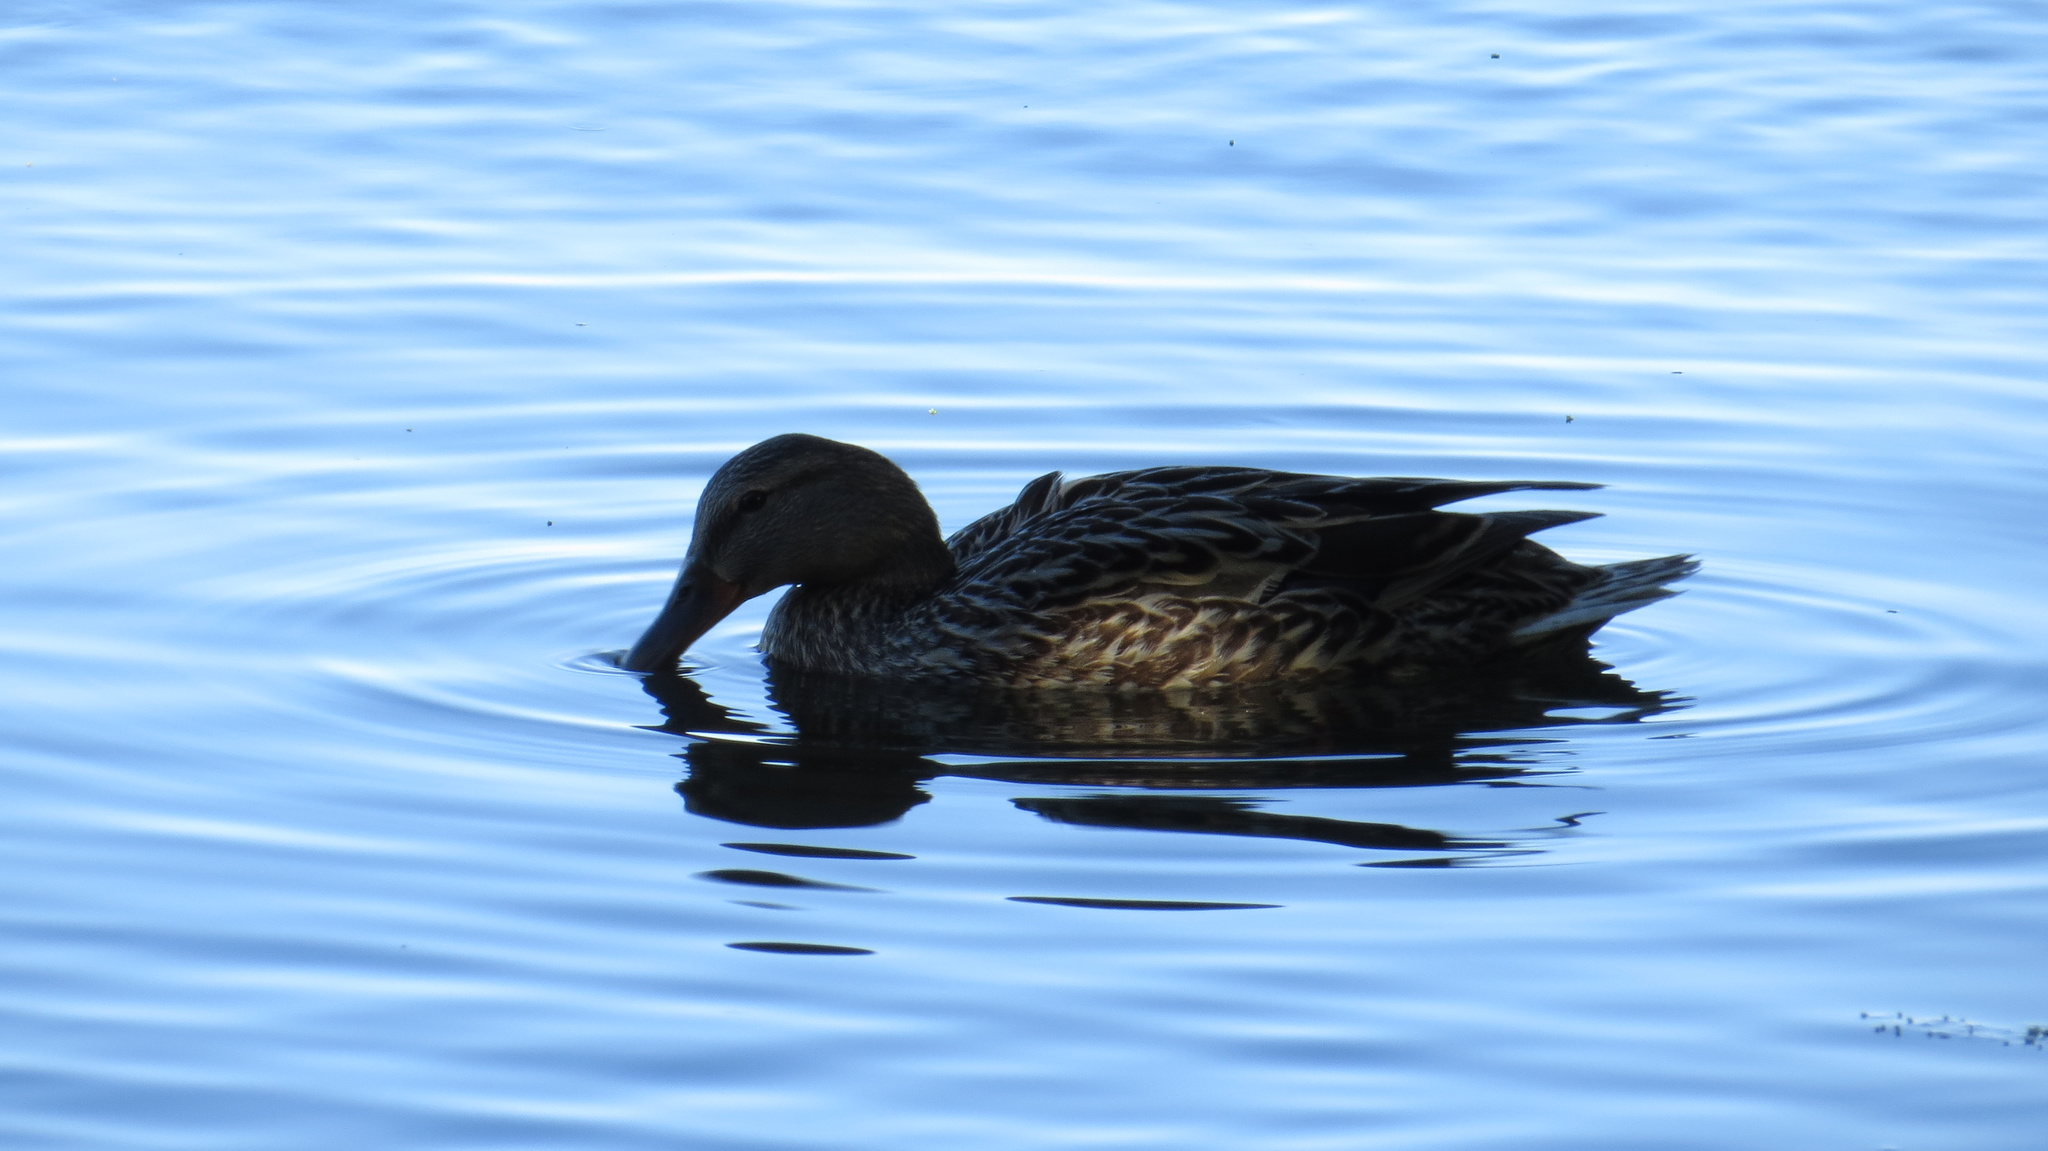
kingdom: Animalia
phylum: Chordata
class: Aves
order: Anseriformes
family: Anatidae
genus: Anas
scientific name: Anas platyrhynchos
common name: Mallard
